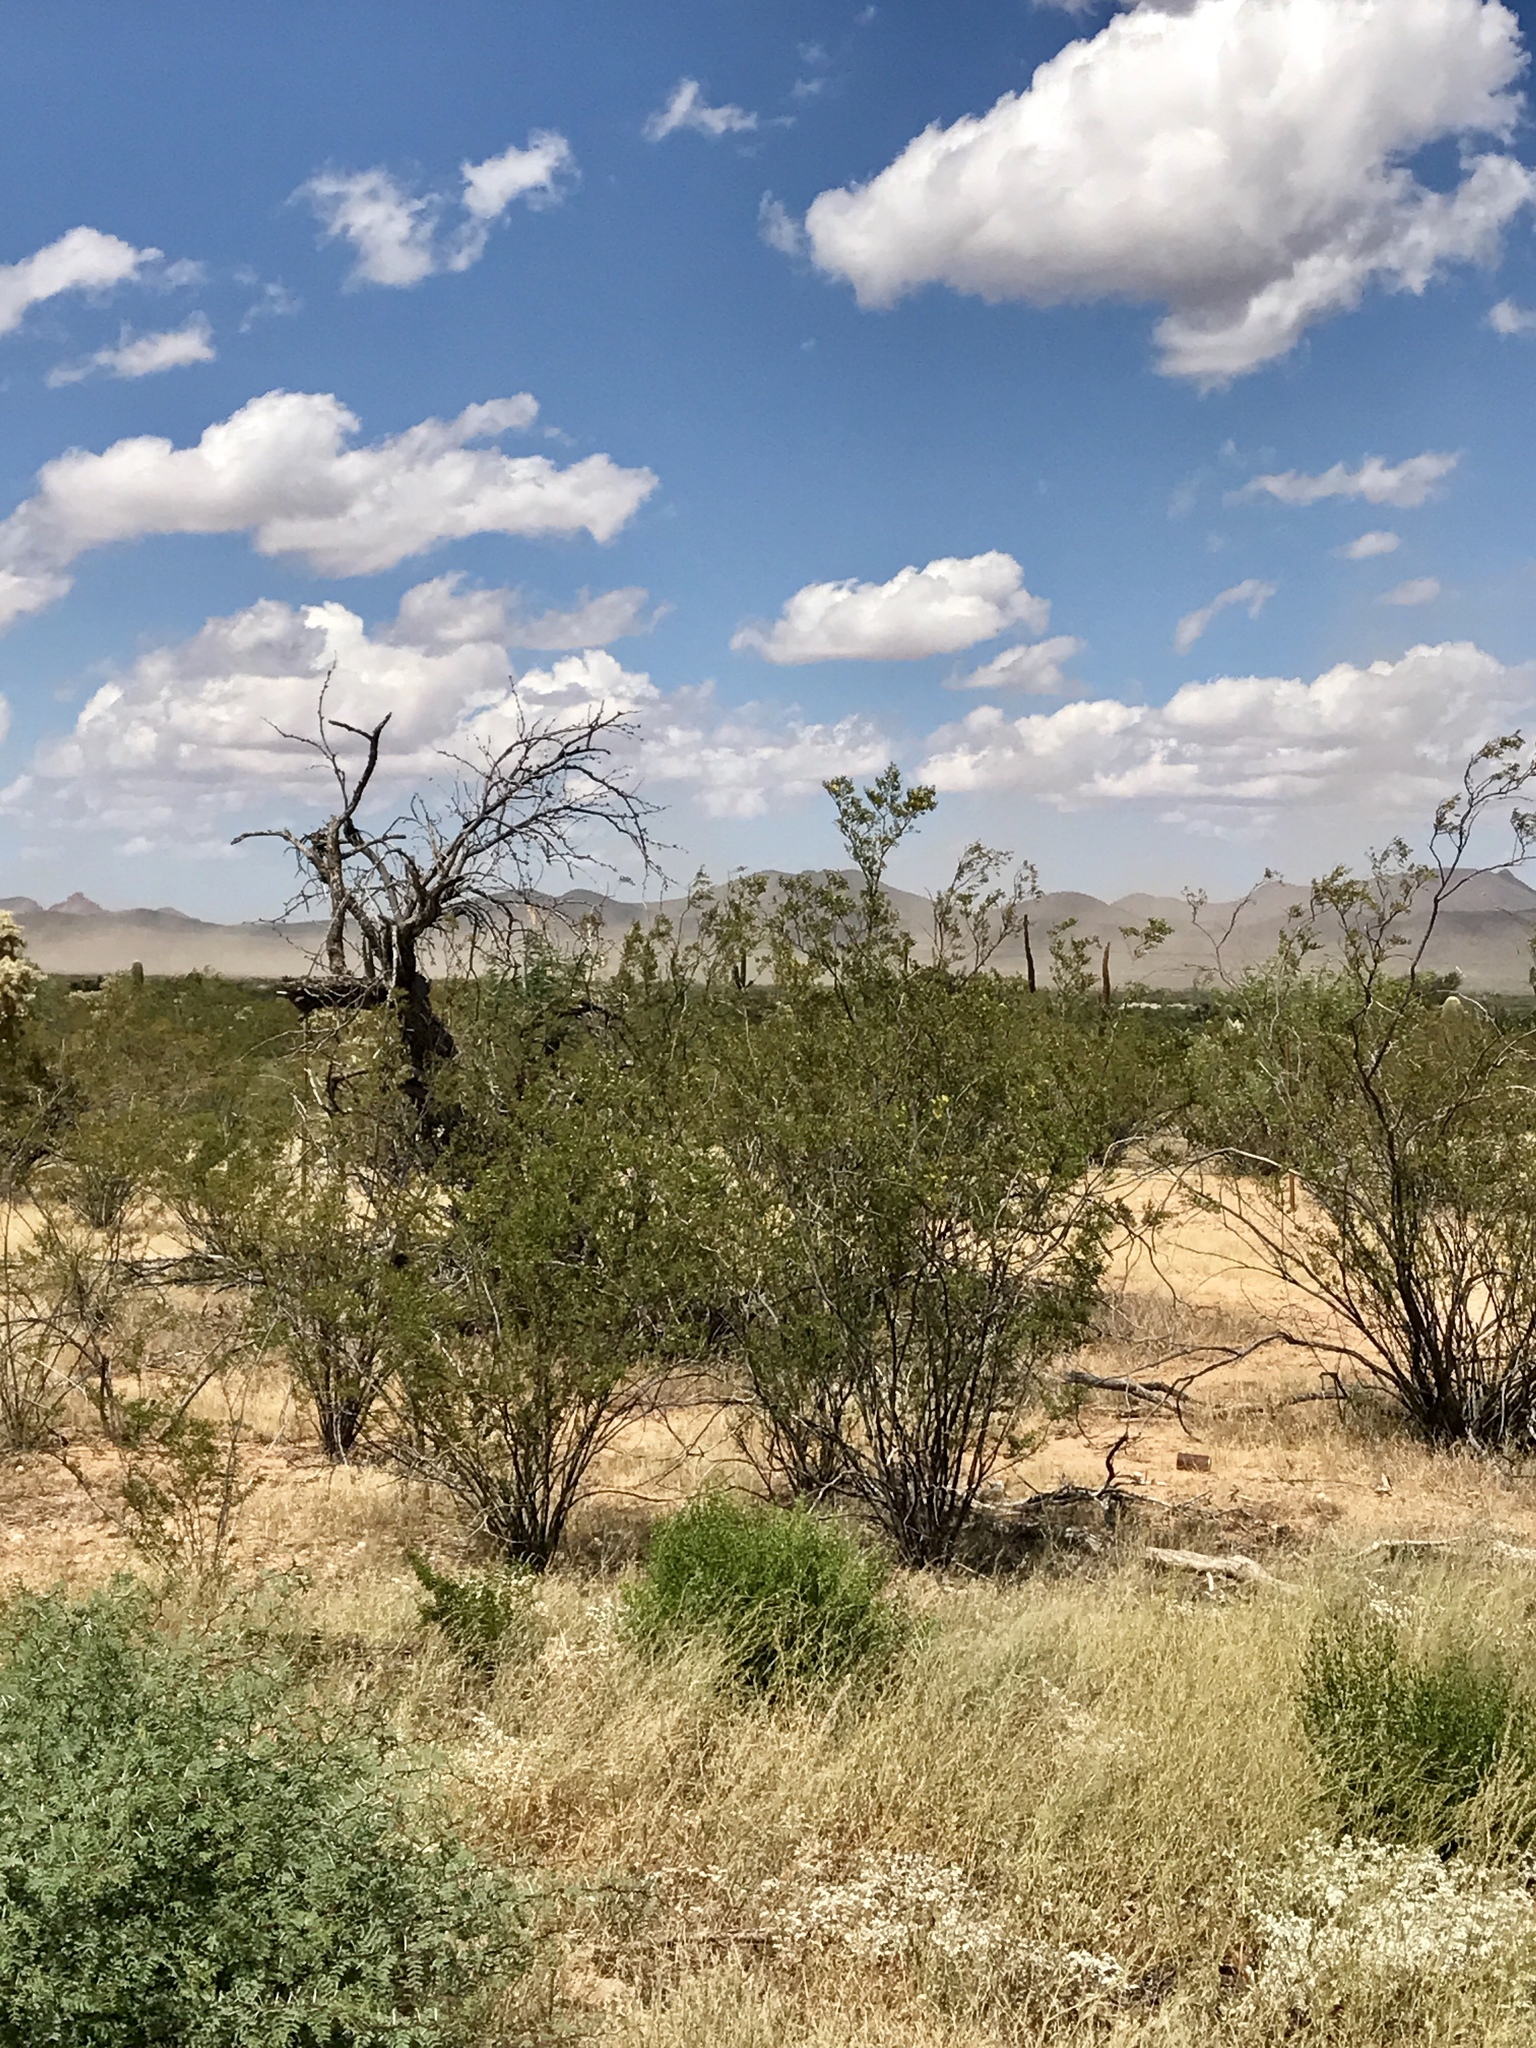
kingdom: Plantae
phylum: Tracheophyta
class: Magnoliopsida
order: Zygophyllales
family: Zygophyllaceae
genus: Larrea
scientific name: Larrea tridentata
